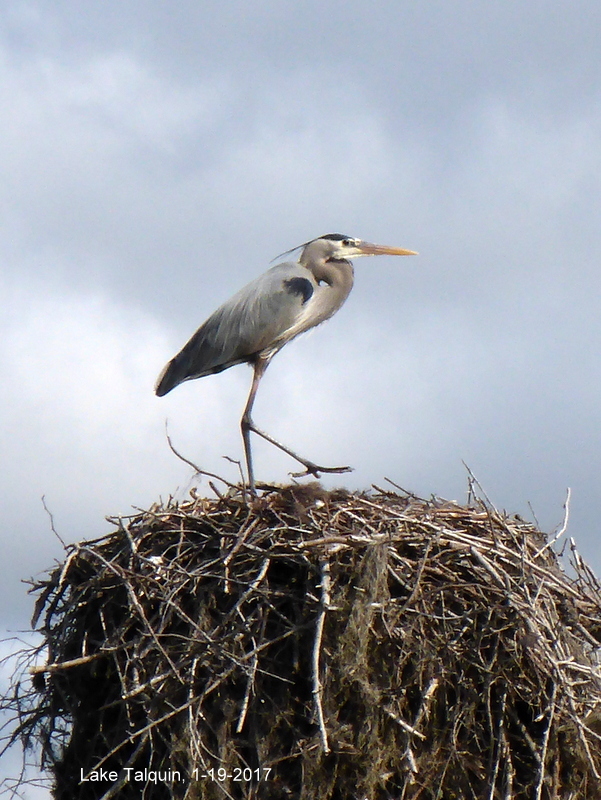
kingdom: Animalia
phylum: Chordata
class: Aves
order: Pelecaniformes
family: Ardeidae
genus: Ardea
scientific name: Ardea herodias
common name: Great blue heron
